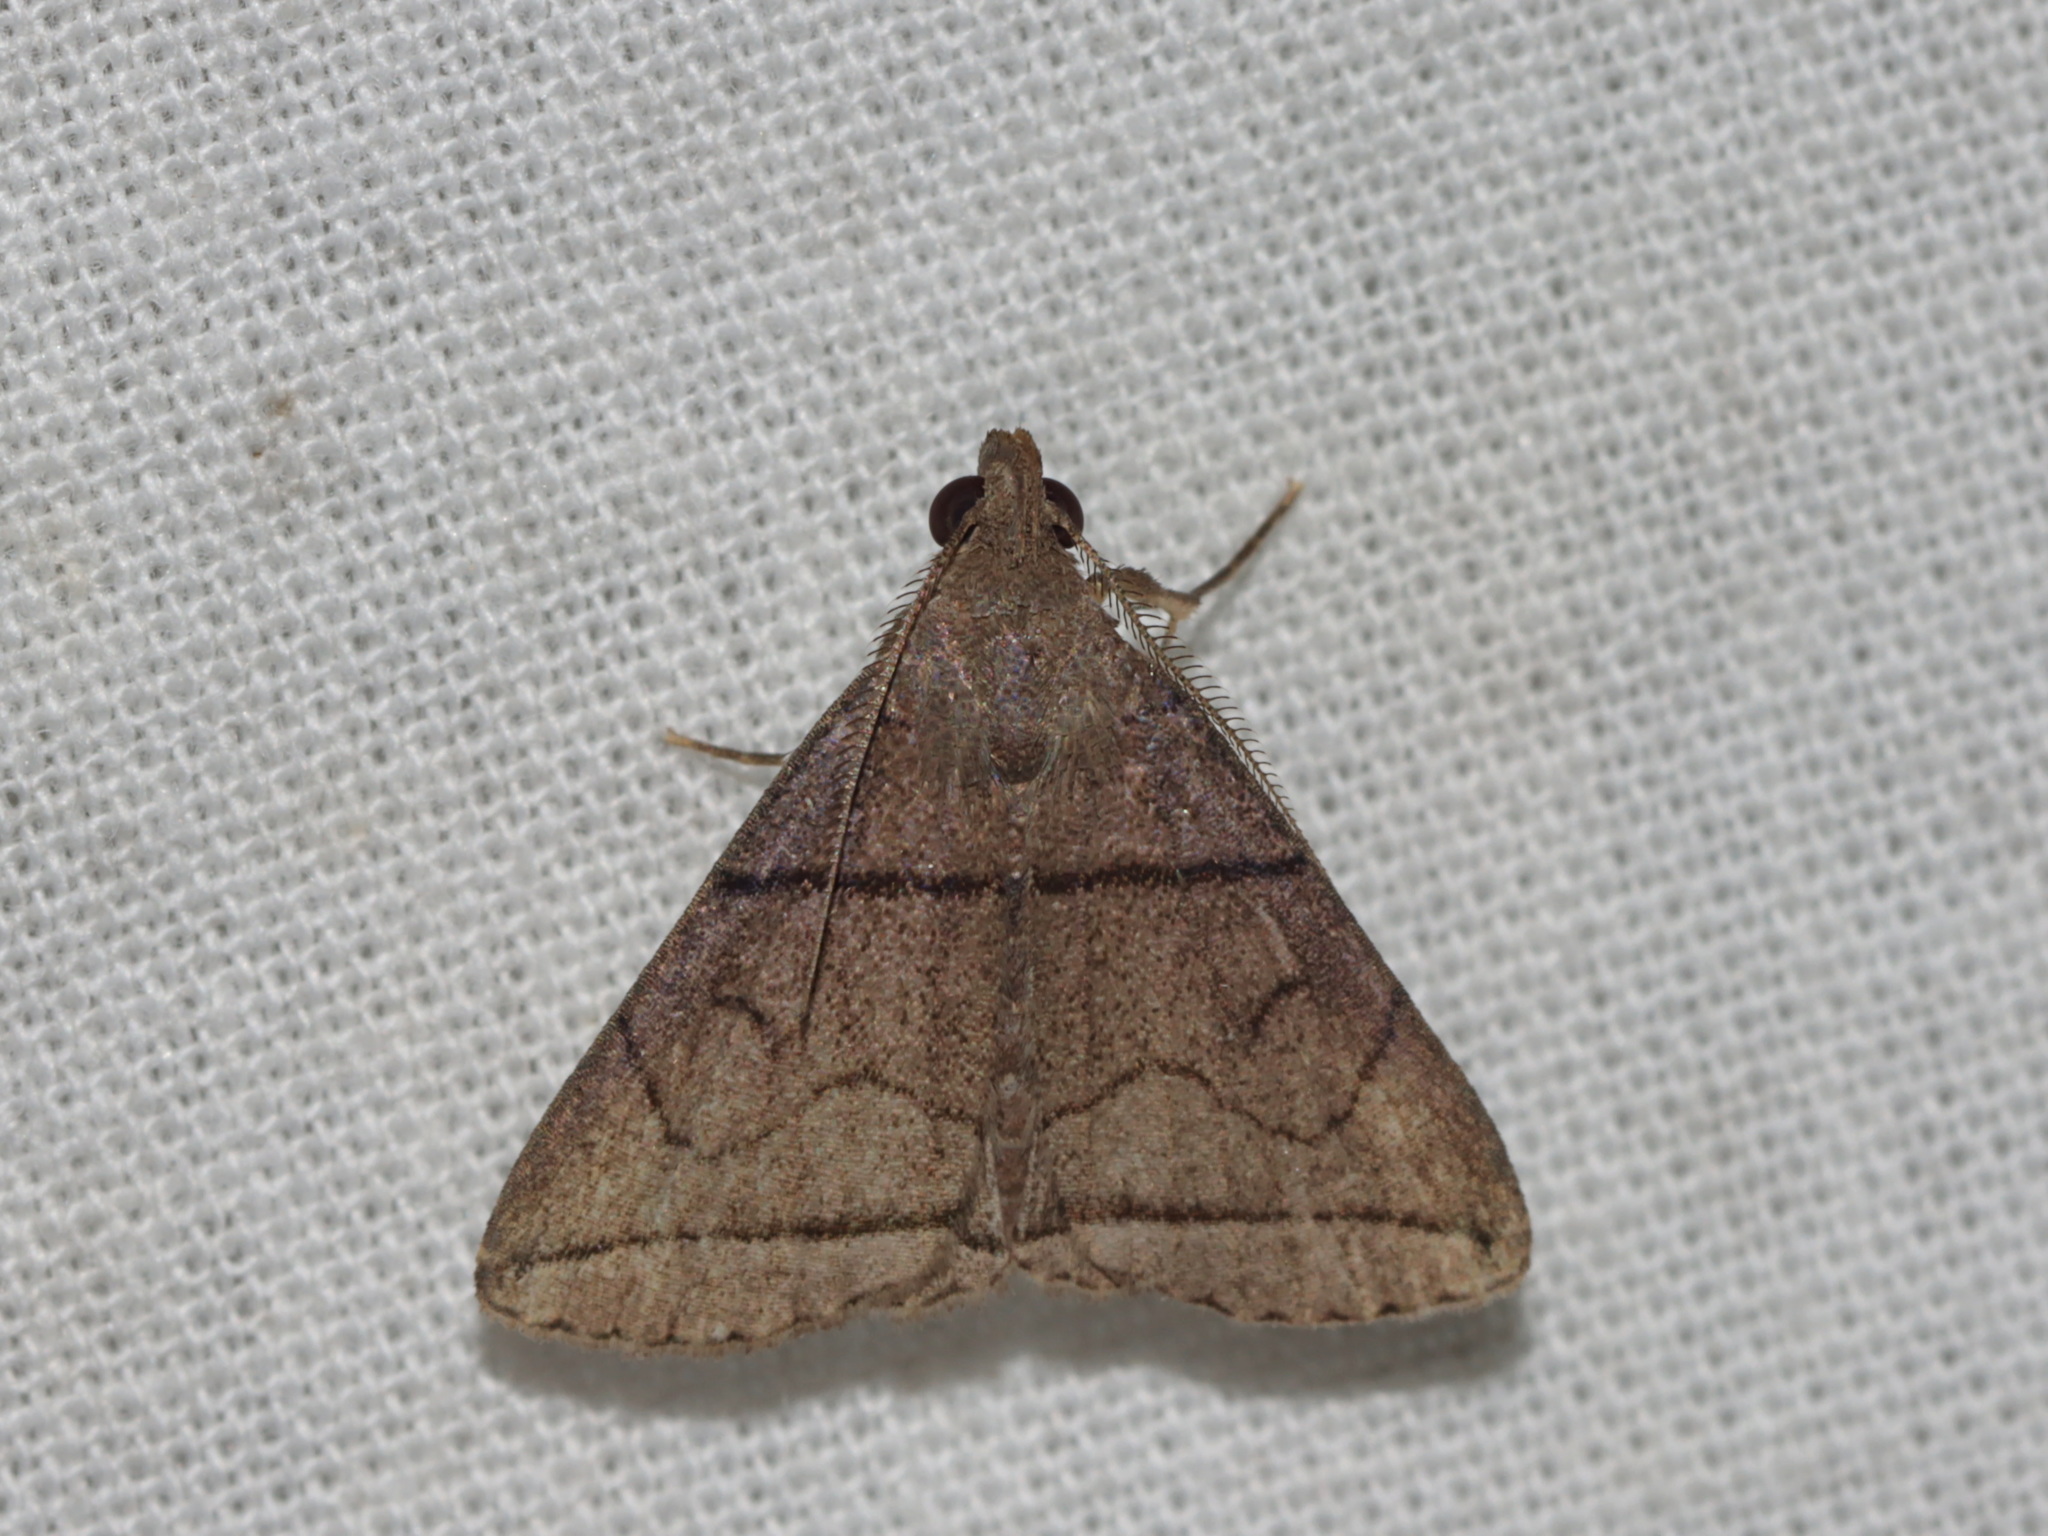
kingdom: Animalia
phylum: Arthropoda
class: Insecta
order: Lepidoptera
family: Erebidae
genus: Polypogon
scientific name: Polypogon silvialis
